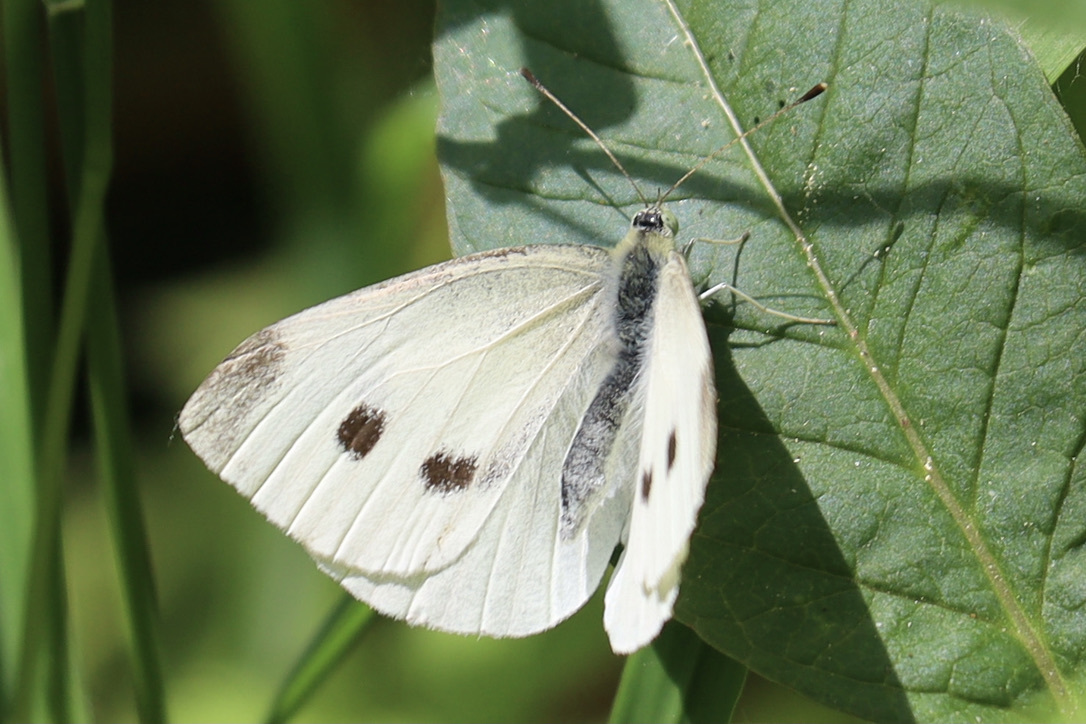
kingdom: Animalia
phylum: Arthropoda
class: Insecta
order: Lepidoptera
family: Pieridae
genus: Pieris
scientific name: Pieris rapae
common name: Small white
